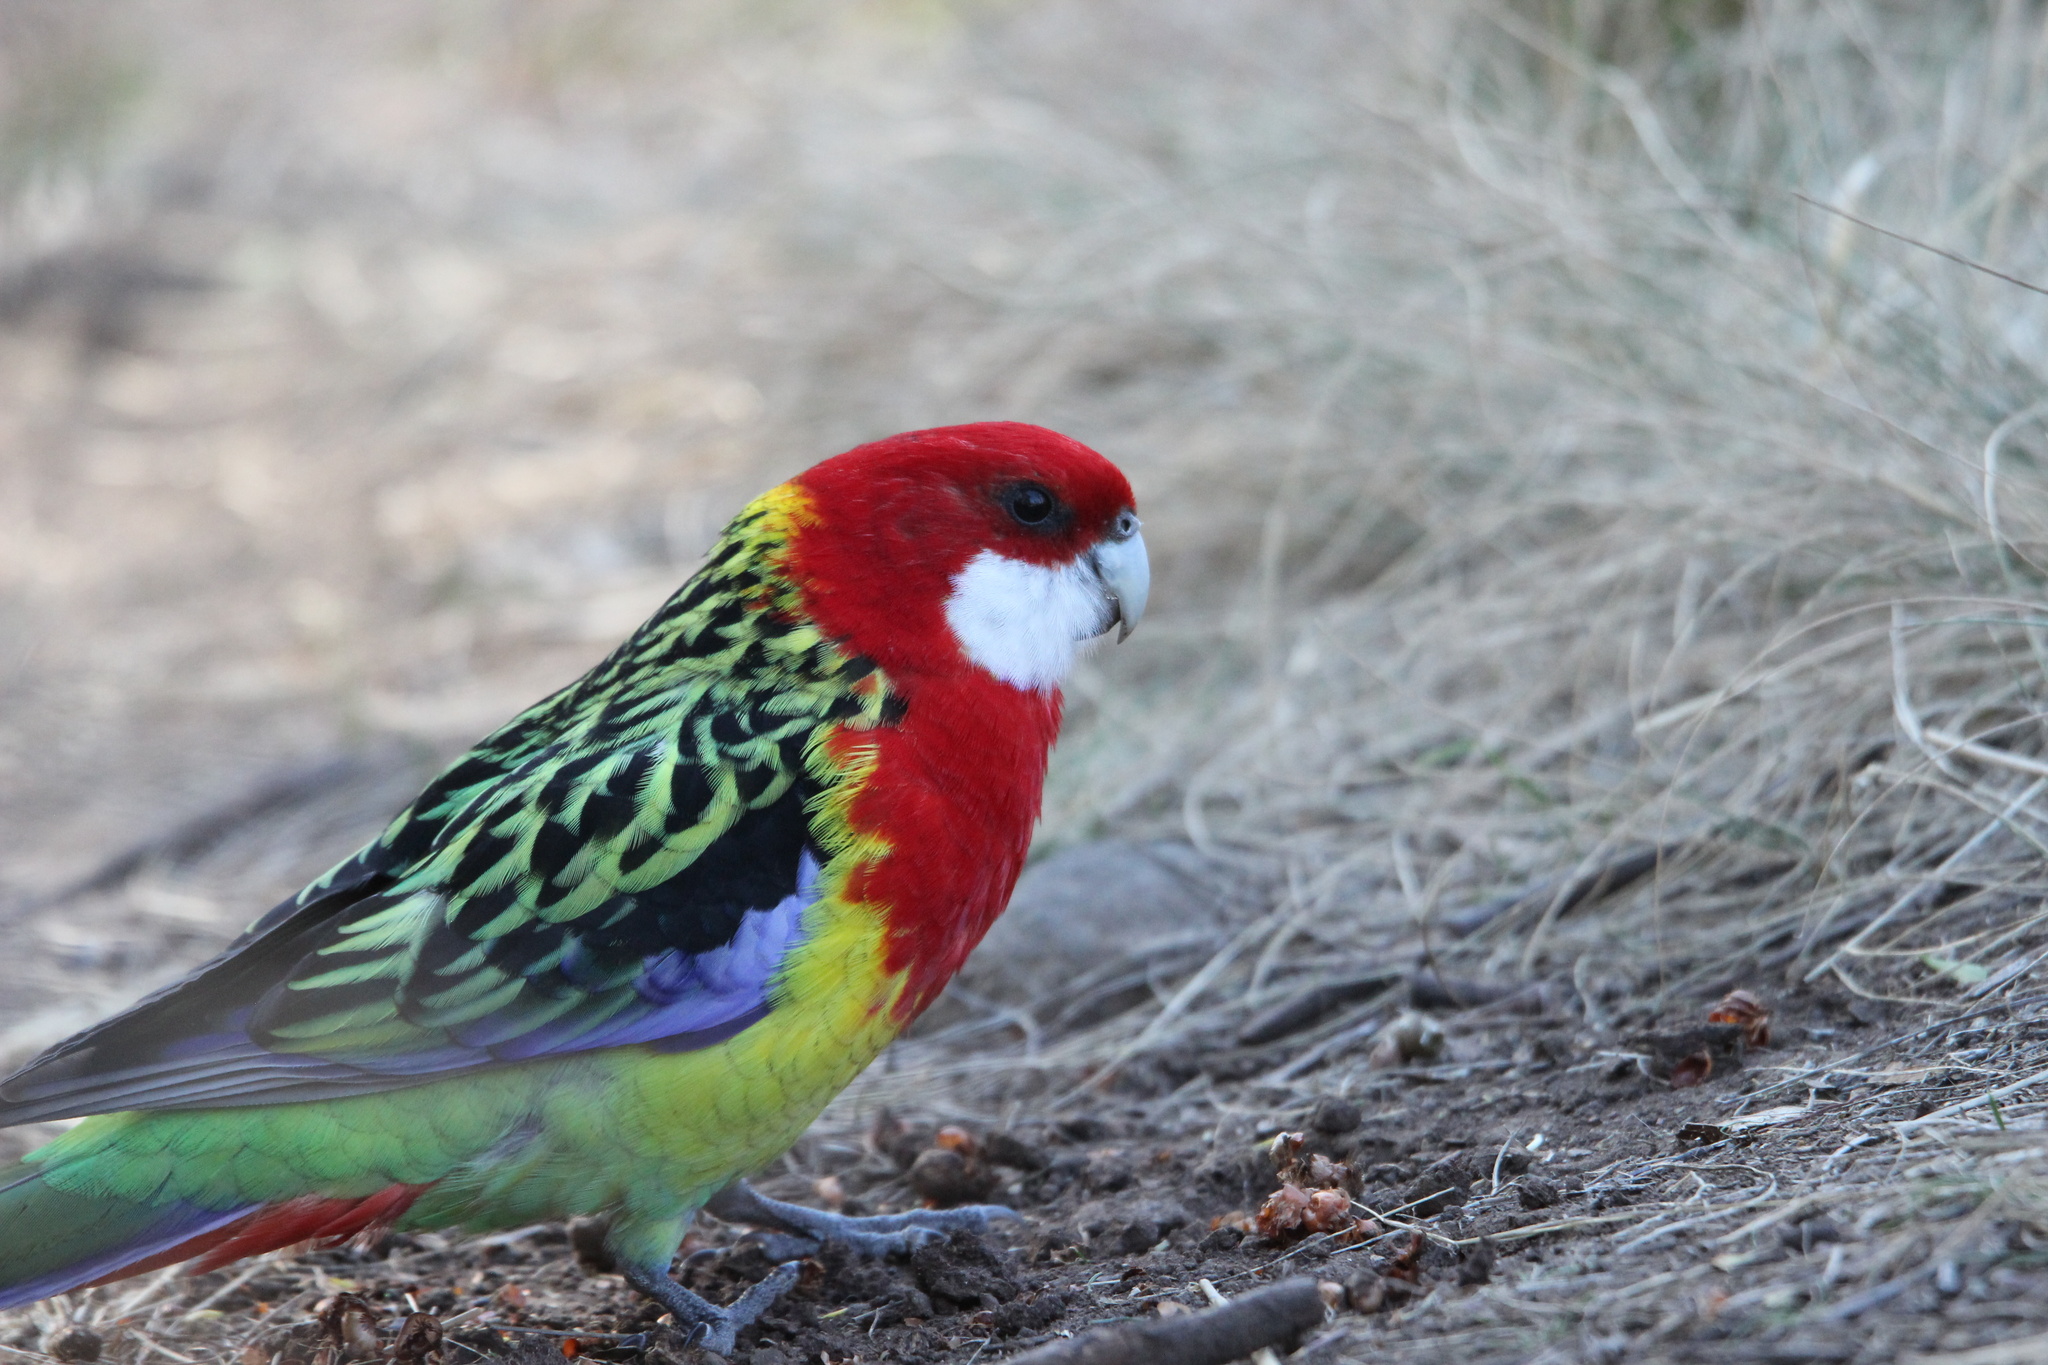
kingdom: Animalia
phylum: Chordata
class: Aves
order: Psittaciformes
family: Psittacidae
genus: Platycercus
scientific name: Platycercus eximius
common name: Eastern rosella
